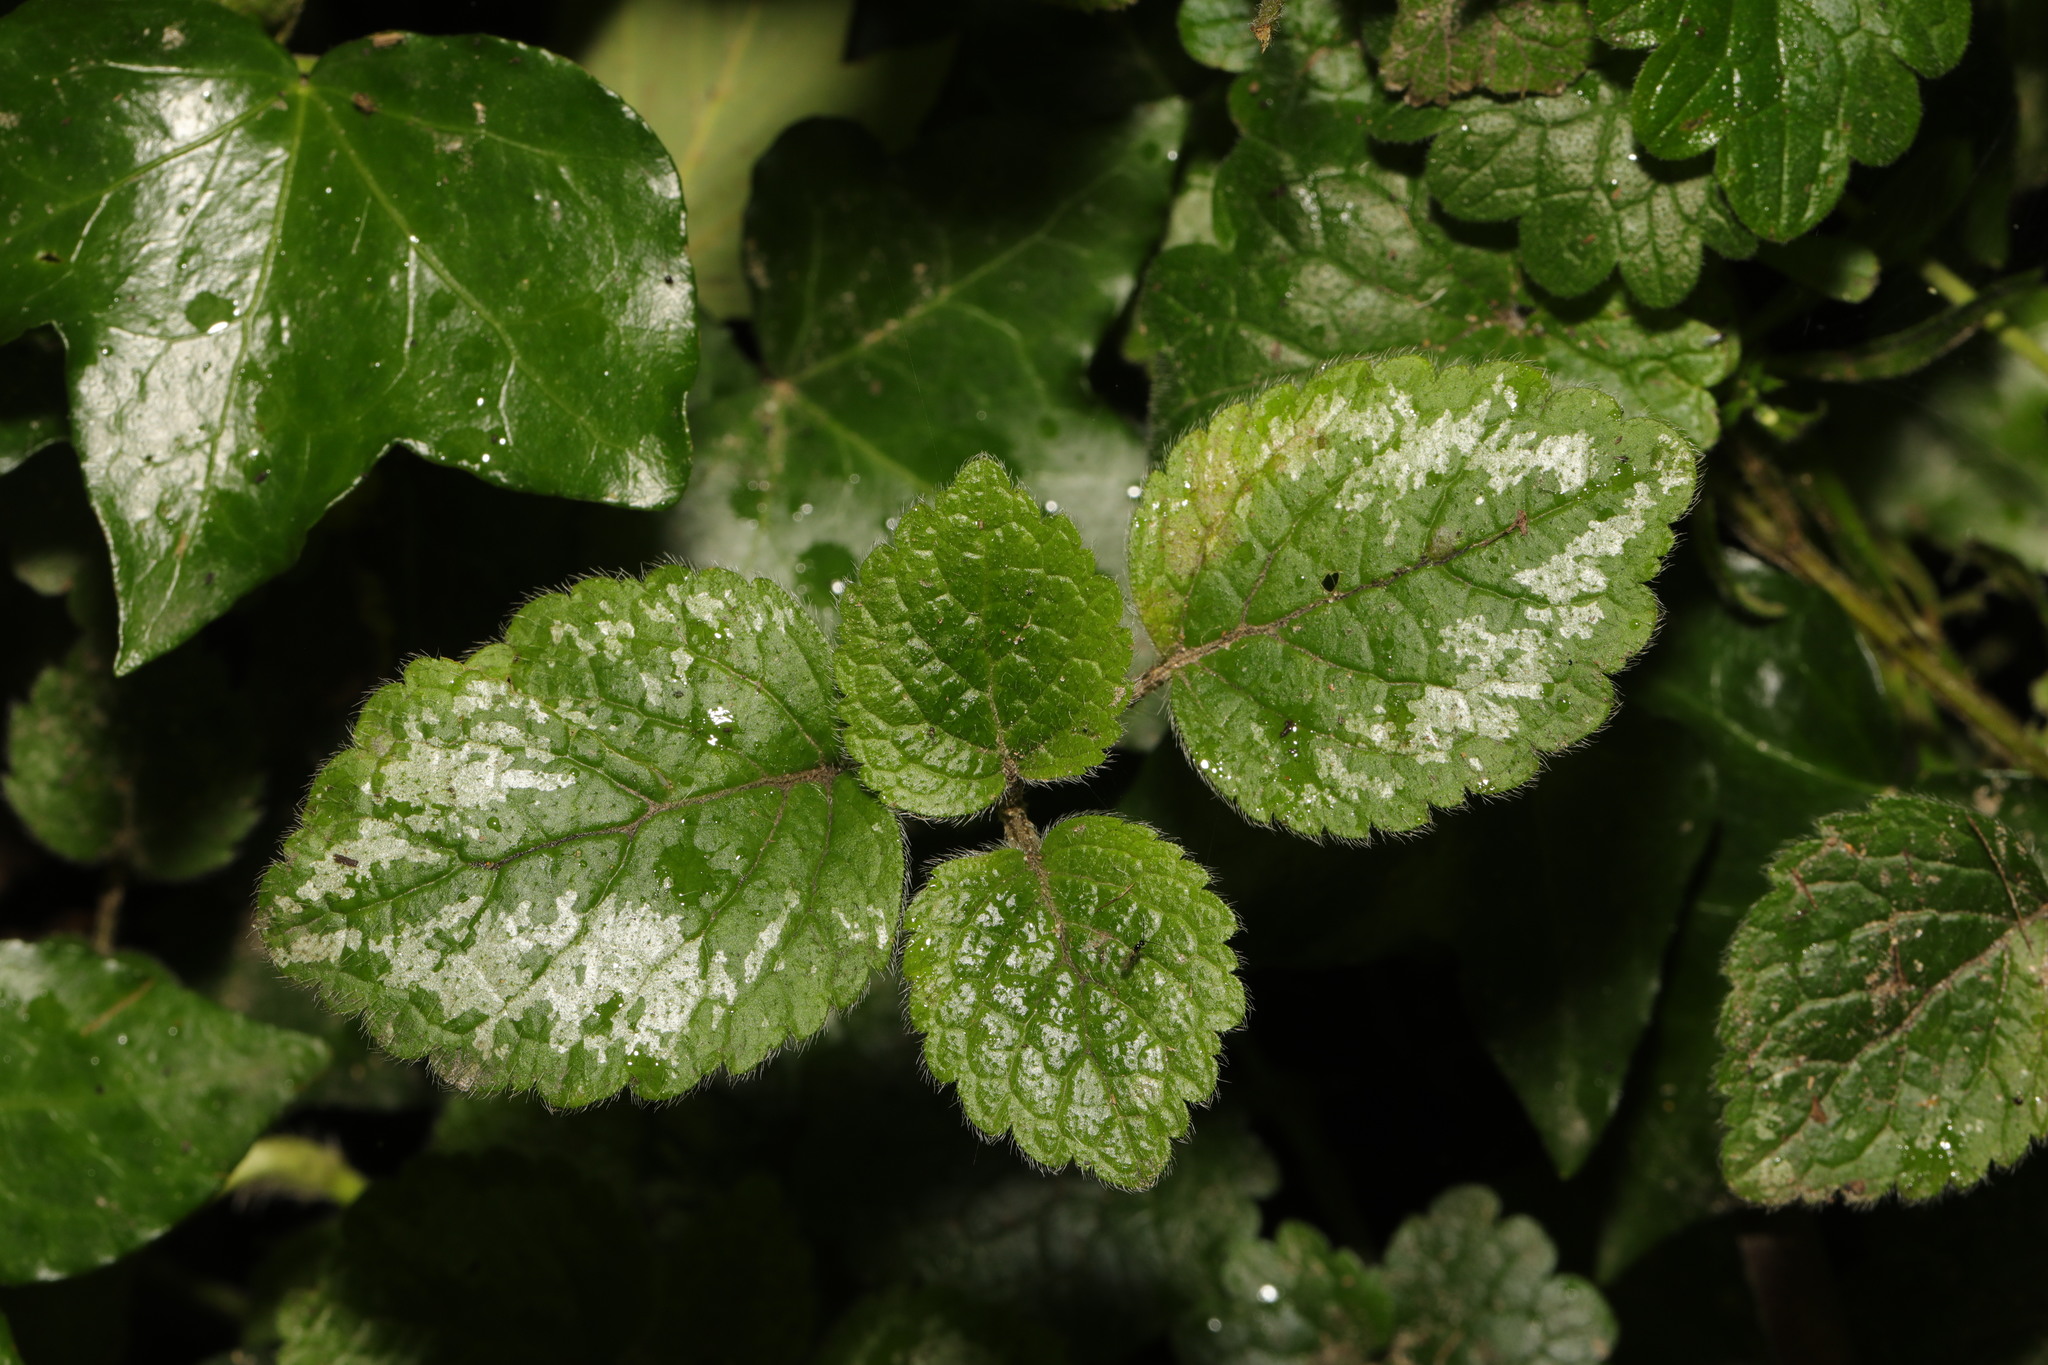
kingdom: Plantae
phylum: Tracheophyta
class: Magnoliopsida
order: Lamiales
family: Lamiaceae
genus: Lamium
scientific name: Lamium galeobdolon
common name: Yellow archangel
